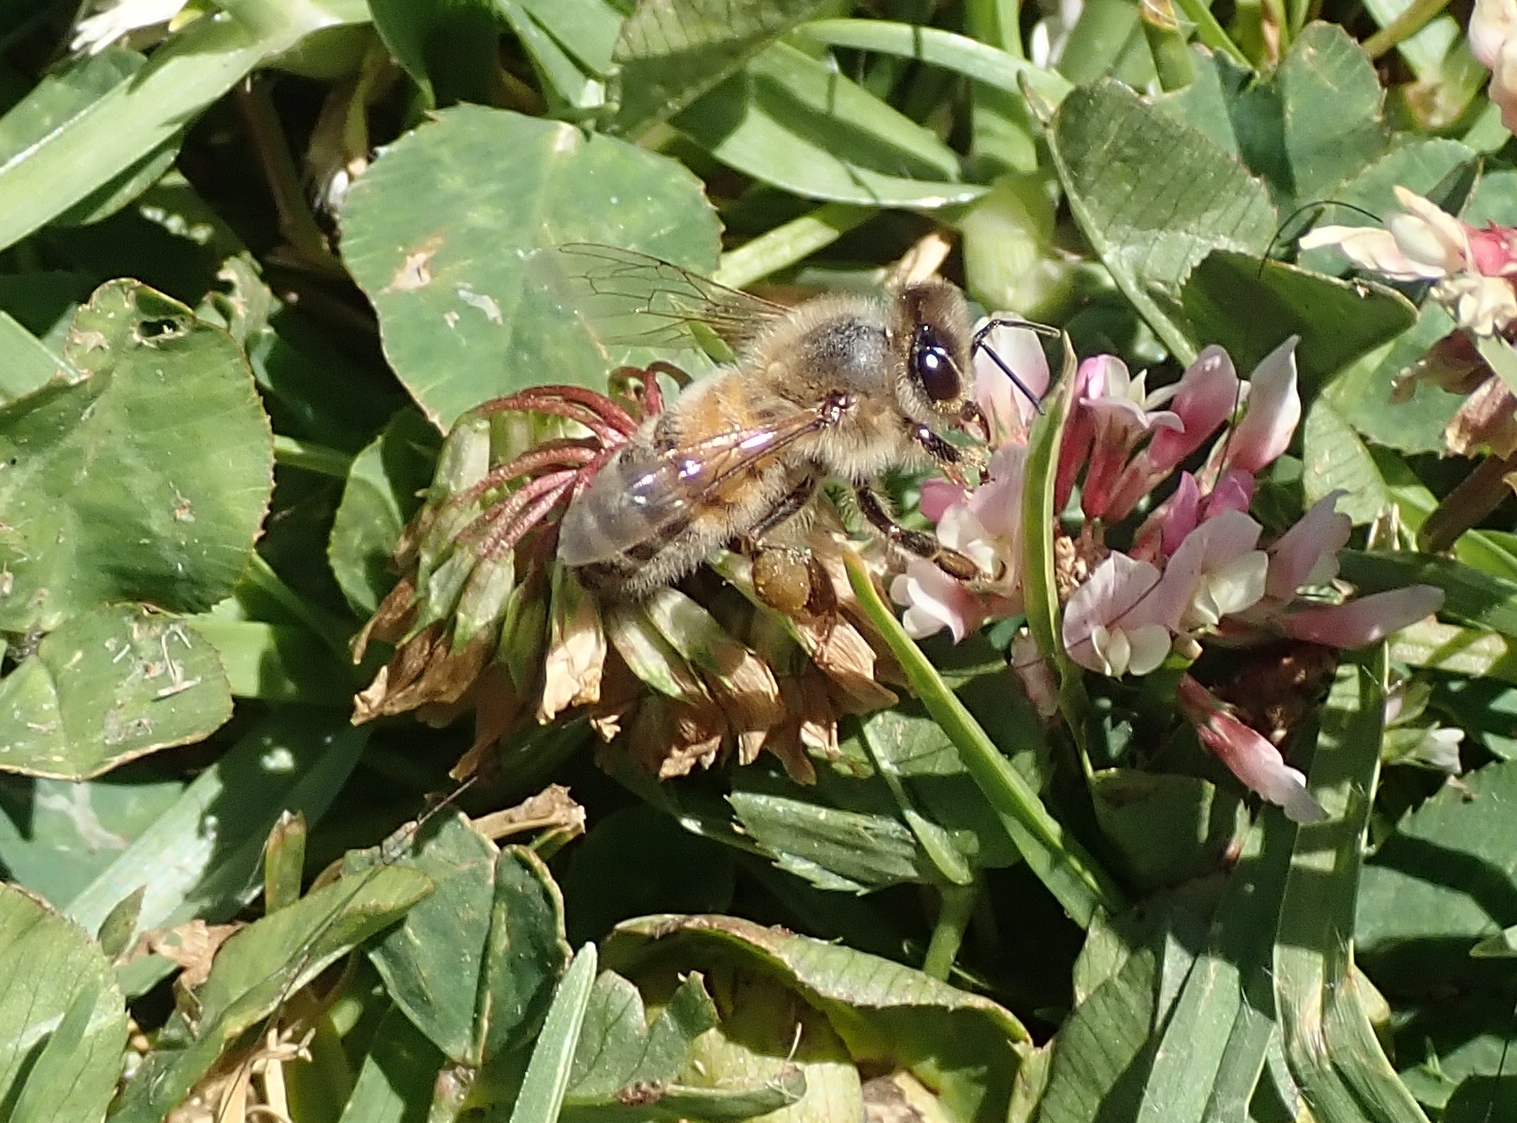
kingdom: Animalia
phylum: Arthropoda
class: Insecta
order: Hymenoptera
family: Apidae
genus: Apis
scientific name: Apis mellifera
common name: Honey bee
